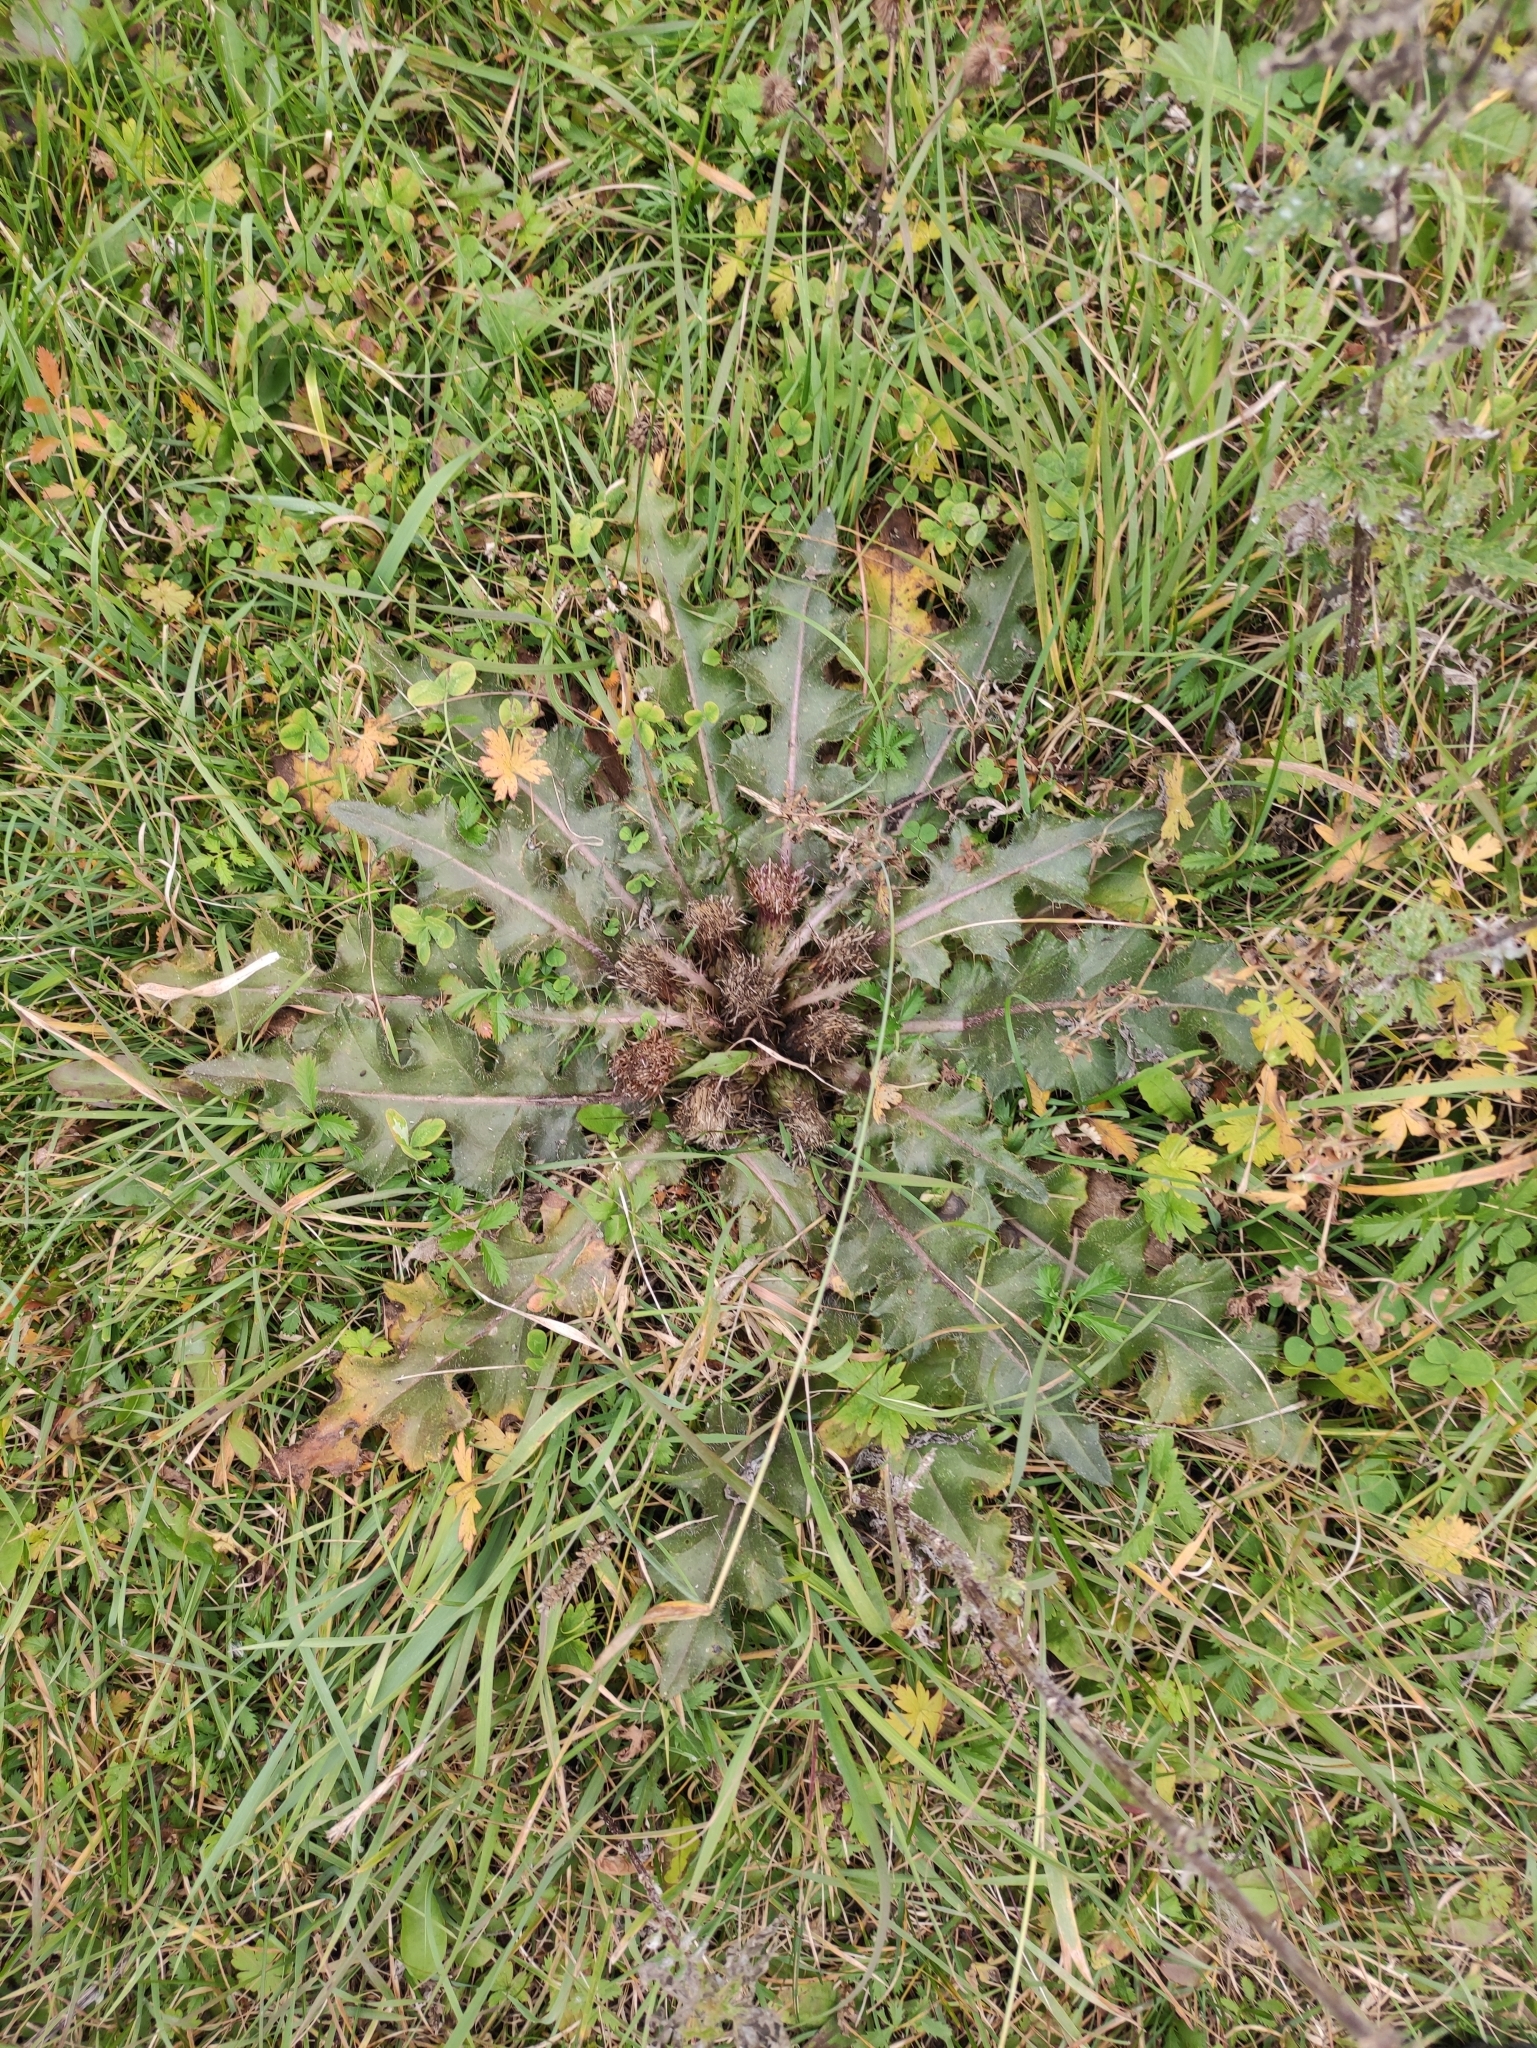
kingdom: Plantae
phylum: Tracheophyta
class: Magnoliopsida
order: Asterales
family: Asteraceae
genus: Cirsium
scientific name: Cirsium esculentum
